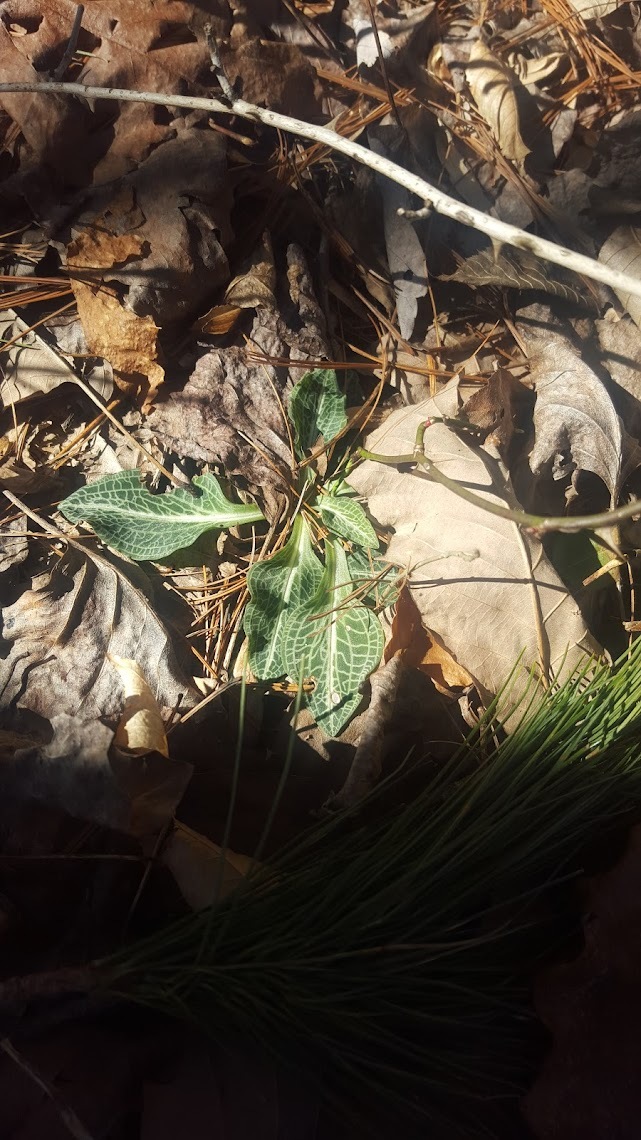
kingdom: Plantae
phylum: Tracheophyta
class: Liliopsida
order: Asparagales
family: Orchidaceae
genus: Goodyera
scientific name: Goodyera pubescens
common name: Downy rattlesnake-plantain
